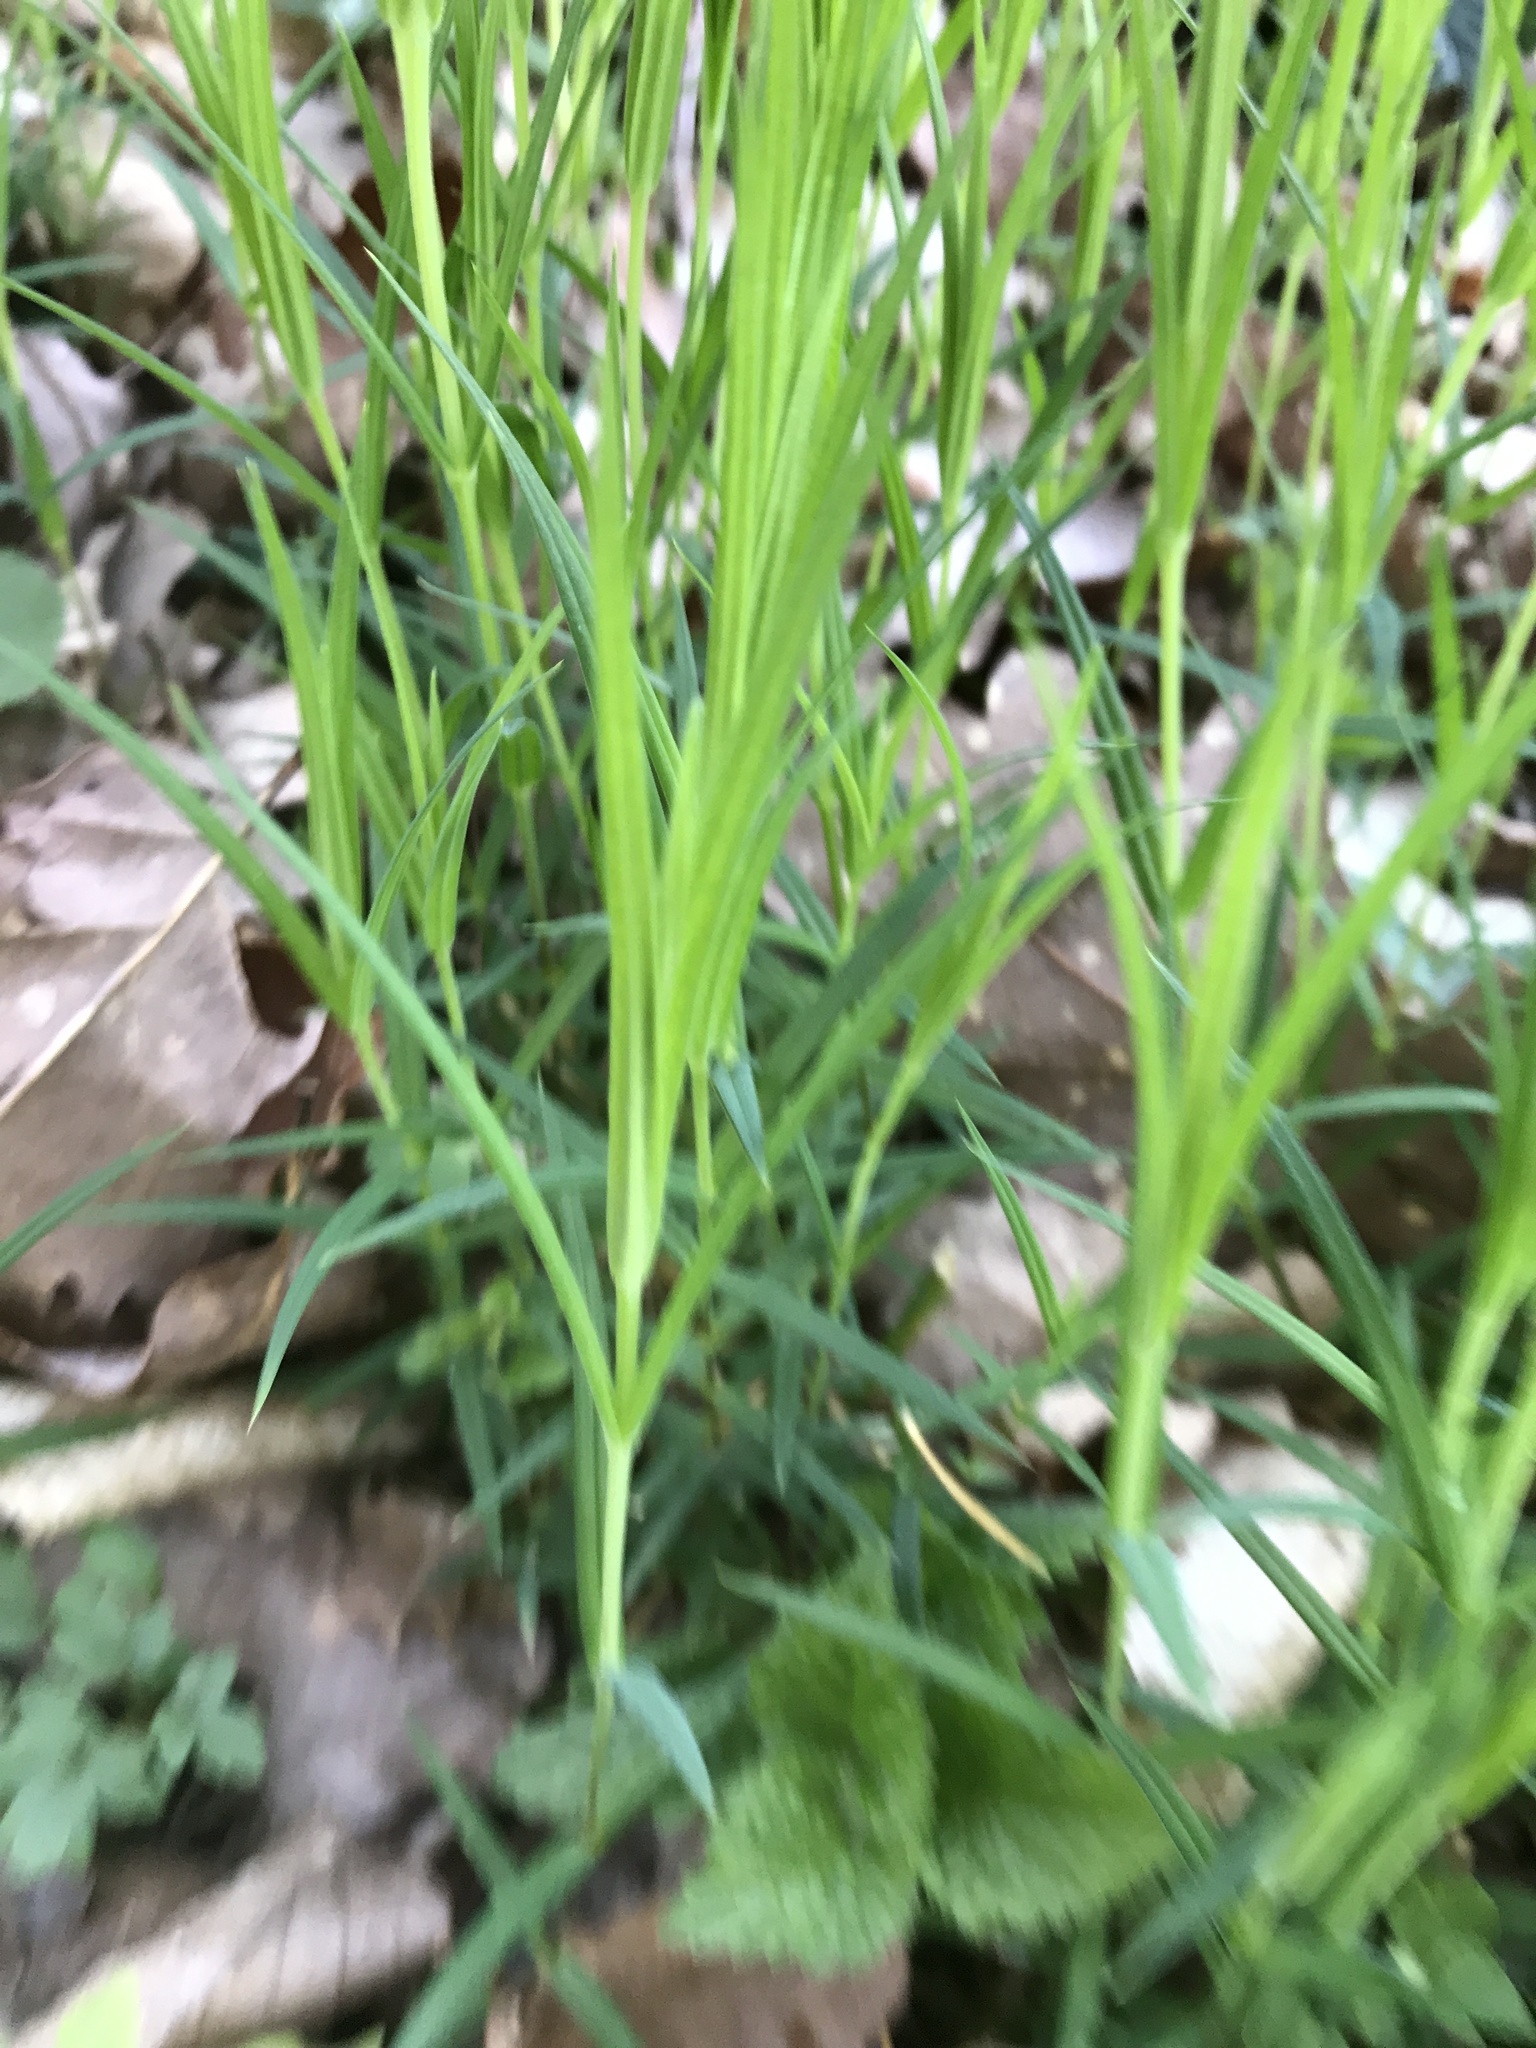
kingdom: Plantae
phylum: Tracheophyta
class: Magnoliopsida
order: Caryophyllales
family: Caryophyllaceae
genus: Rabelera
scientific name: Rabelera holostea
